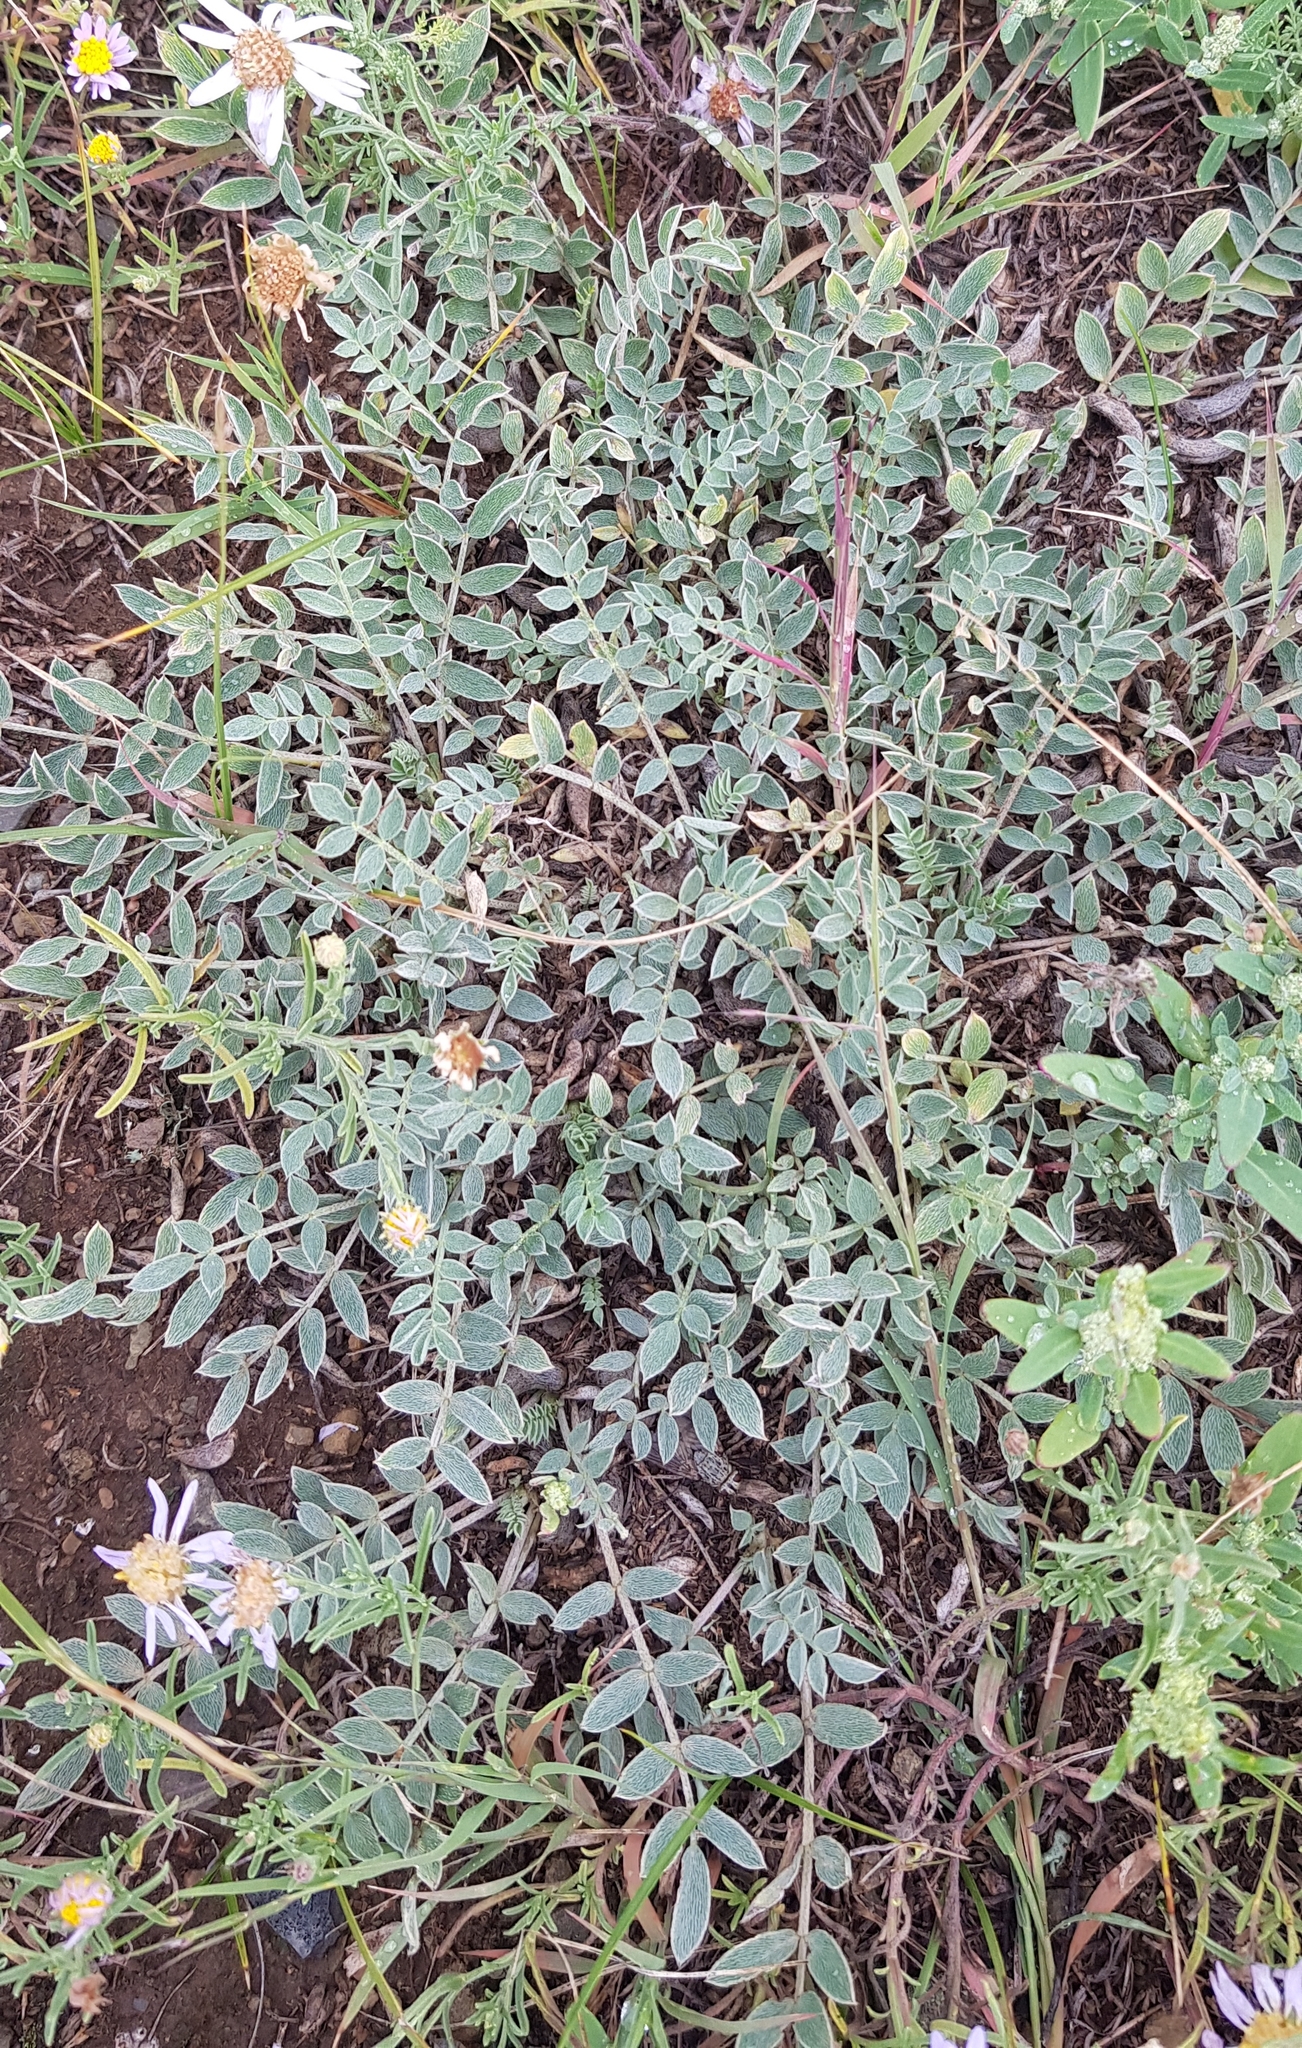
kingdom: Plantae
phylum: Tracheophyta
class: Magnoliopsida
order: Fabales
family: Fabaceae
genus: Astragalus
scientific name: Astragalus laxmannii
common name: Laxmann's milk-vetch
